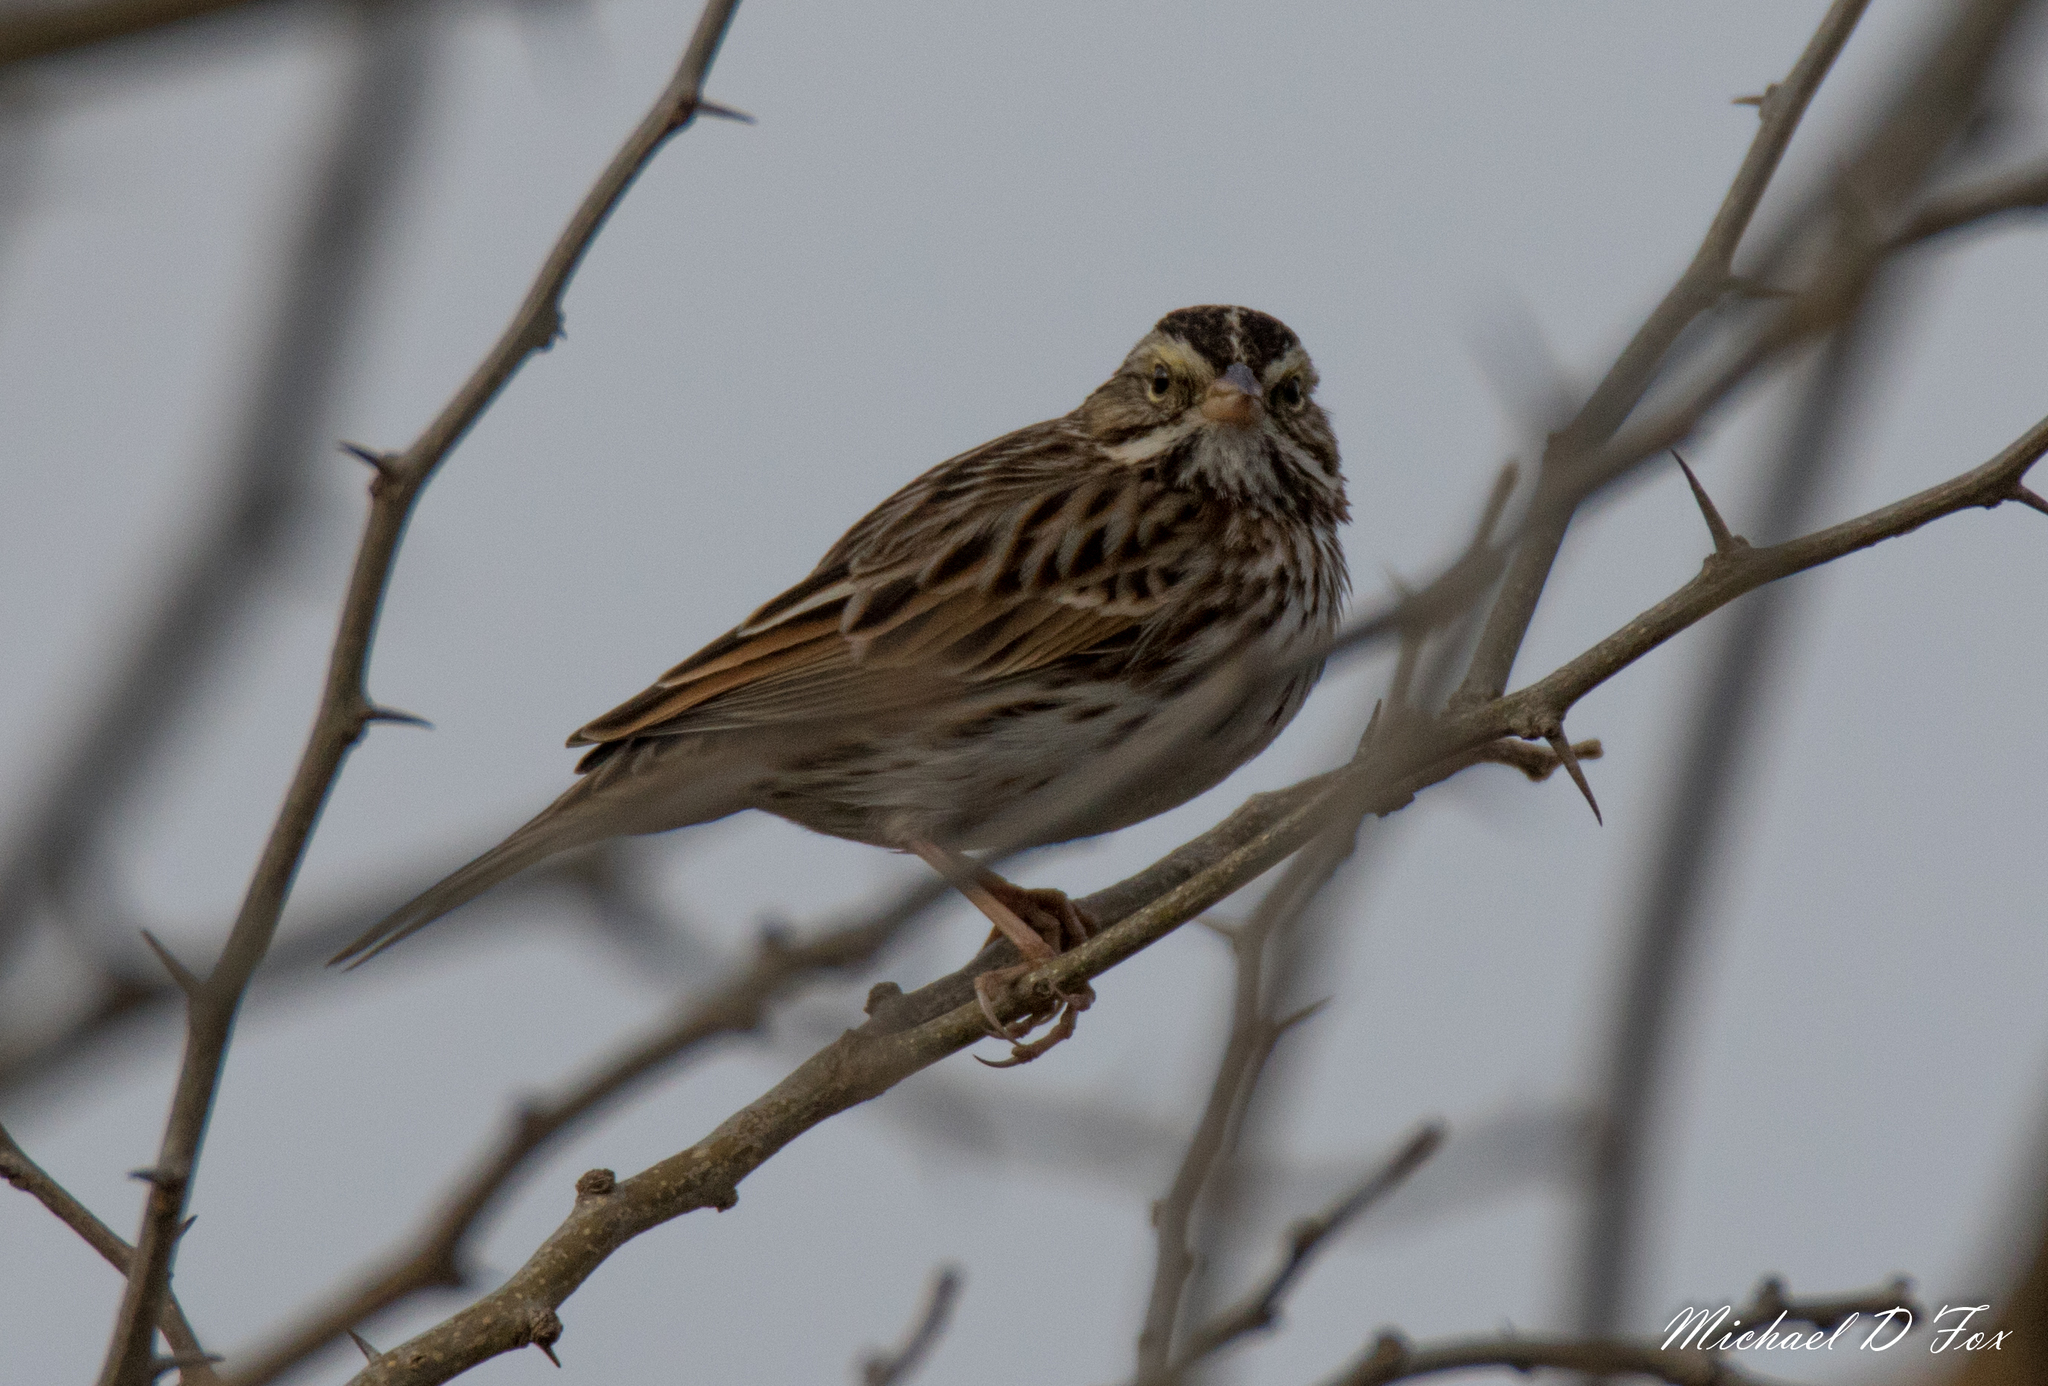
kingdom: Animalia
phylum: Chordata
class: Aves
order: Passeriformes
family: Passerellidae
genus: Passerculus
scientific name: Passerculus sandwichensis
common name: Savannah sparrow
